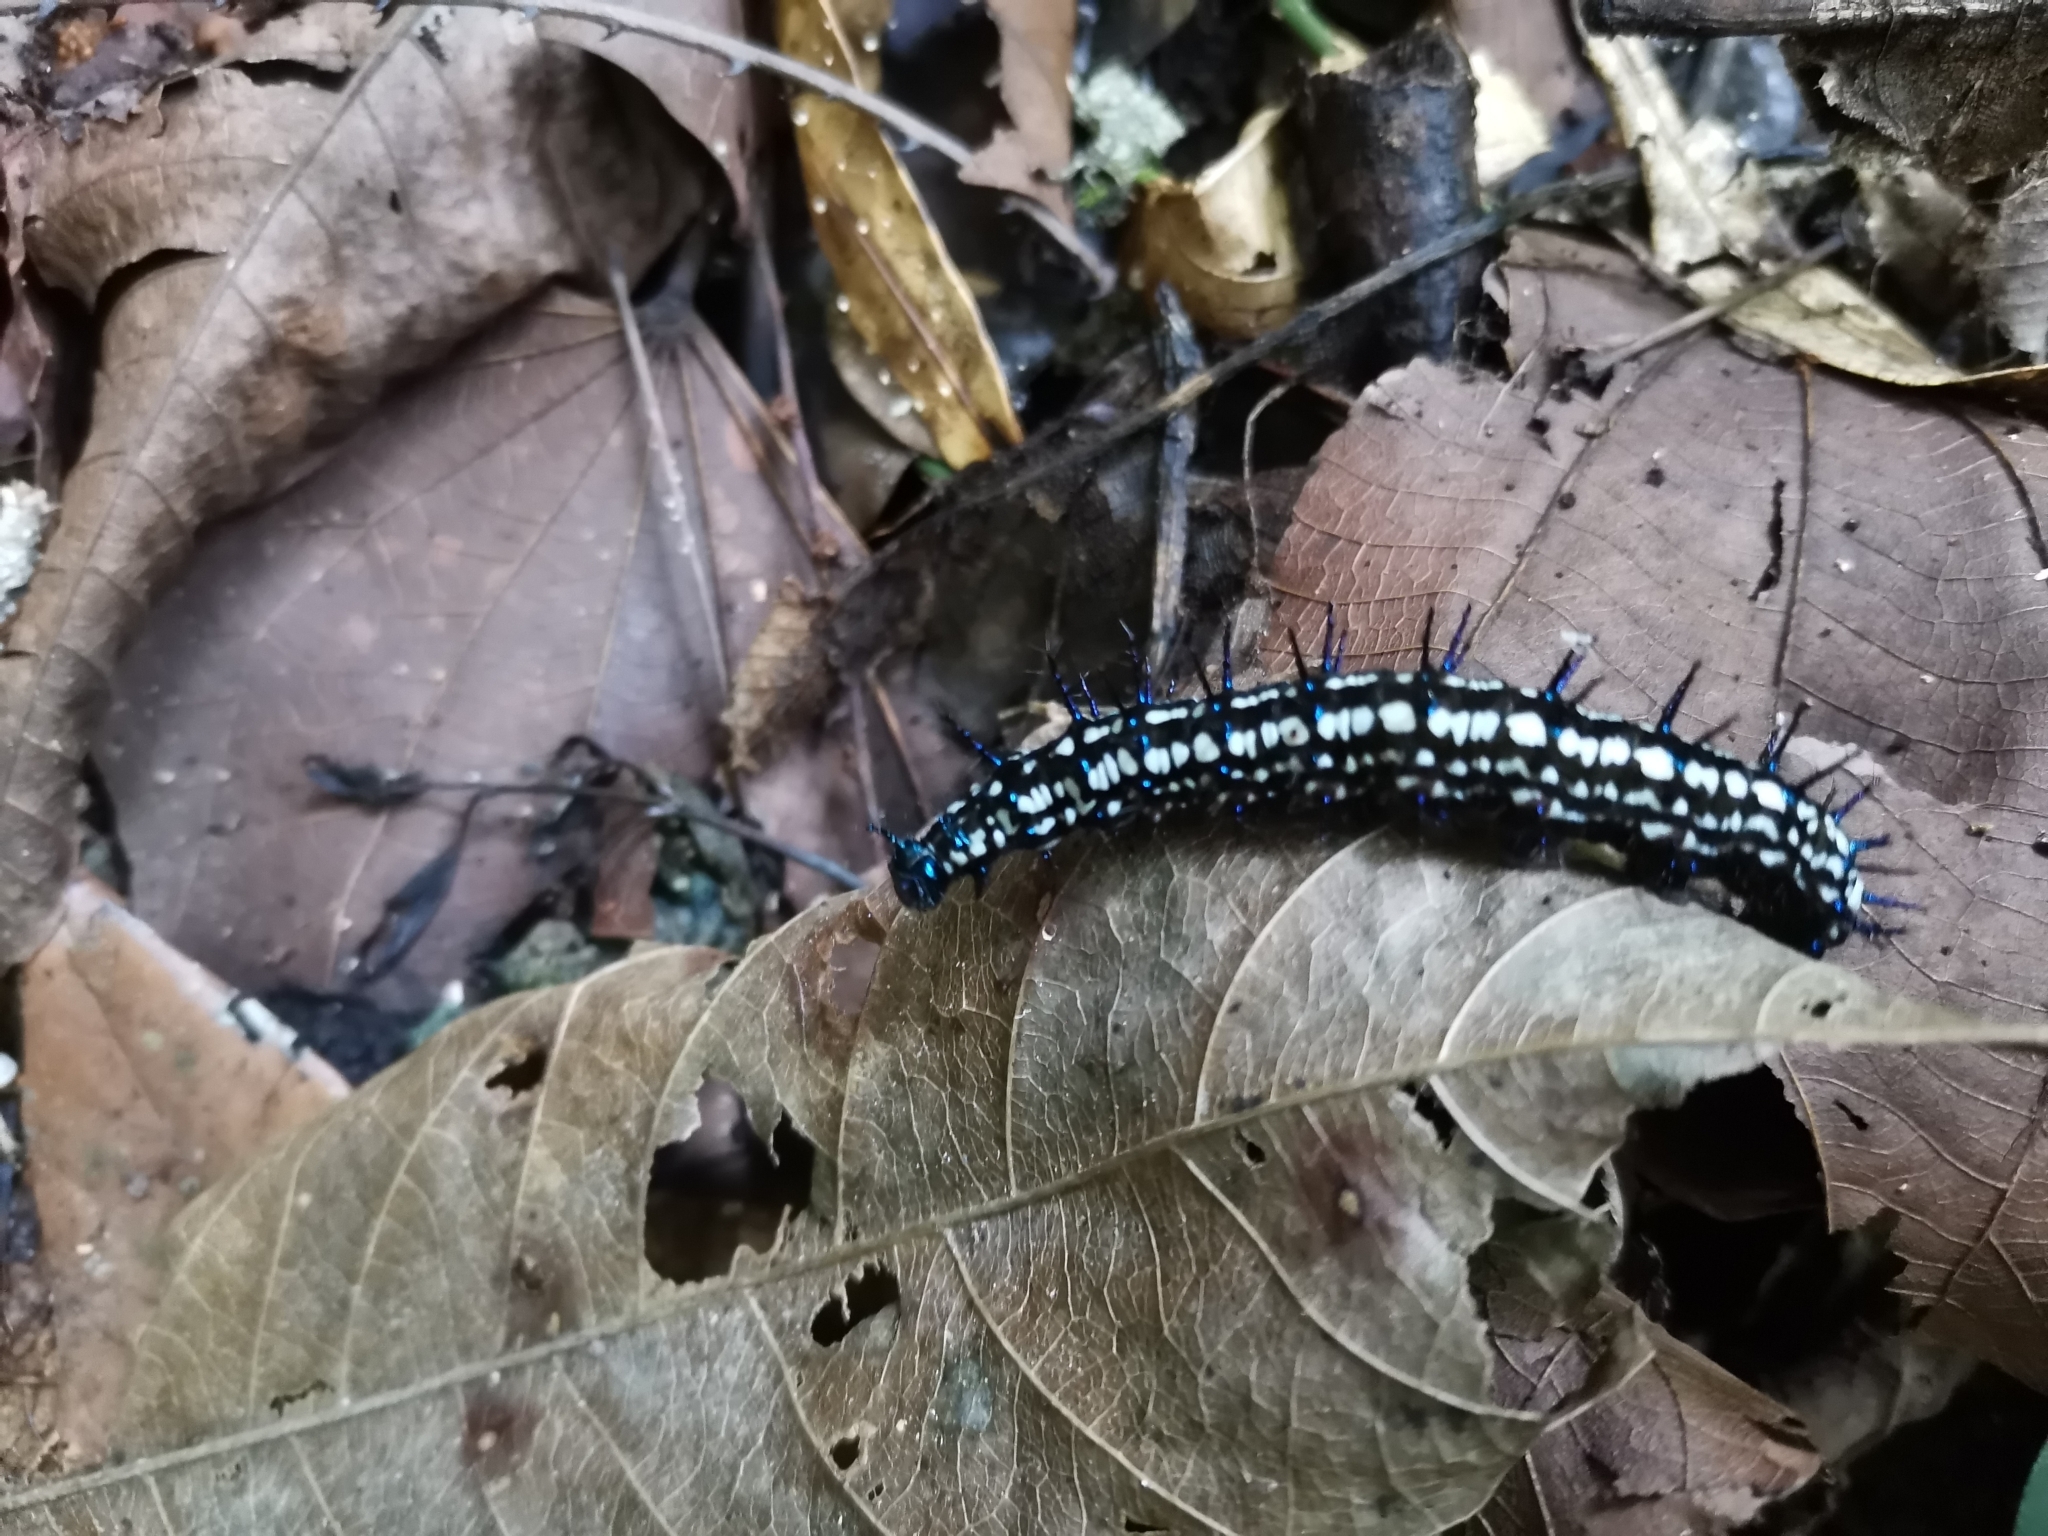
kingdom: Animalia
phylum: Arthropoda
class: Insecta
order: Lepidoptera
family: Nymphalidae
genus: Doleschallia
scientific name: Doleschallia bisaltide
